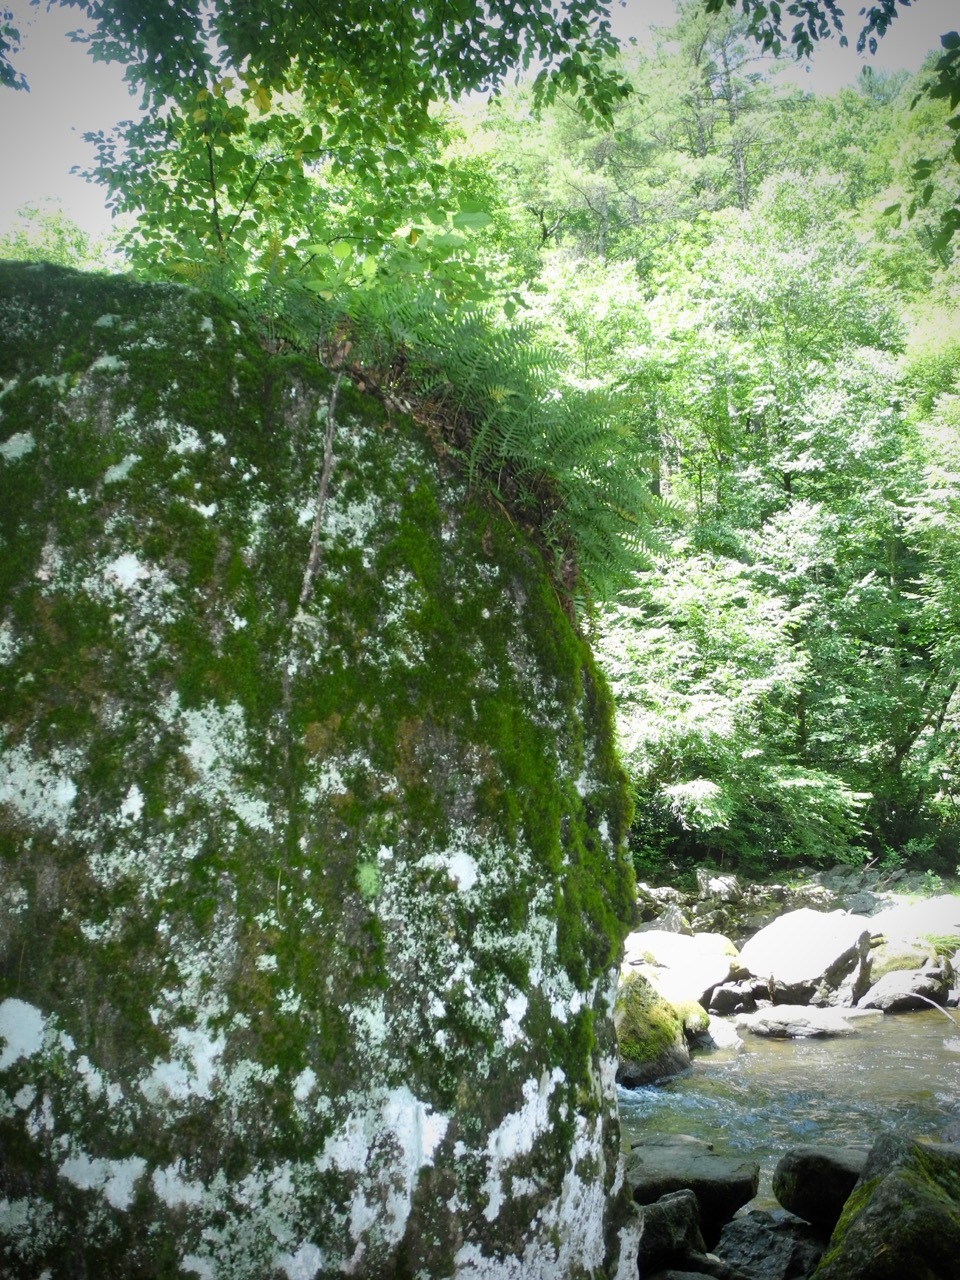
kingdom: Plantae
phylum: Tracheophyta
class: Polypodiopsida
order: Polypodiales
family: Polypodiaceae
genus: Polypodium
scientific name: Polypodium appalachianum
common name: Appalachian polypody
